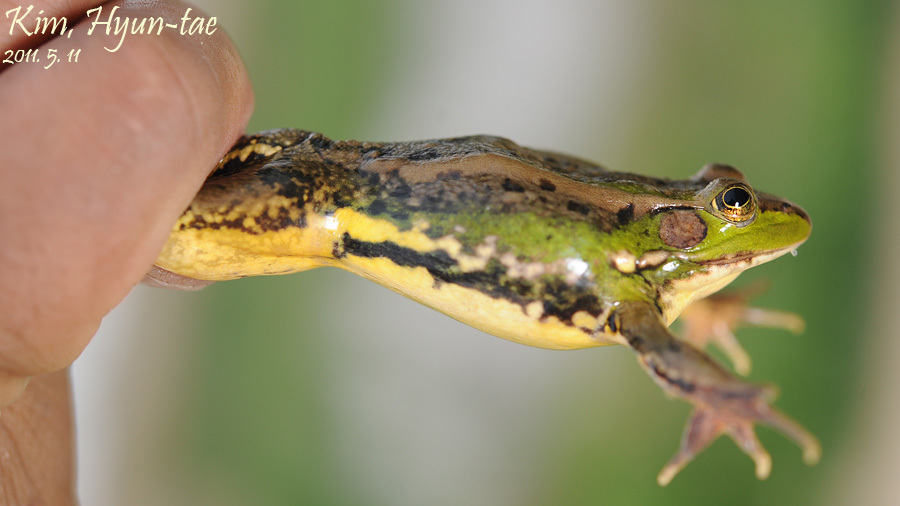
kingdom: Animalia
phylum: Chordata
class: Amphibia
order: Anura
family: Ranidae
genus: Pelophylax
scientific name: Pelophylax chosenicus
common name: Gold-spotted pond frog
